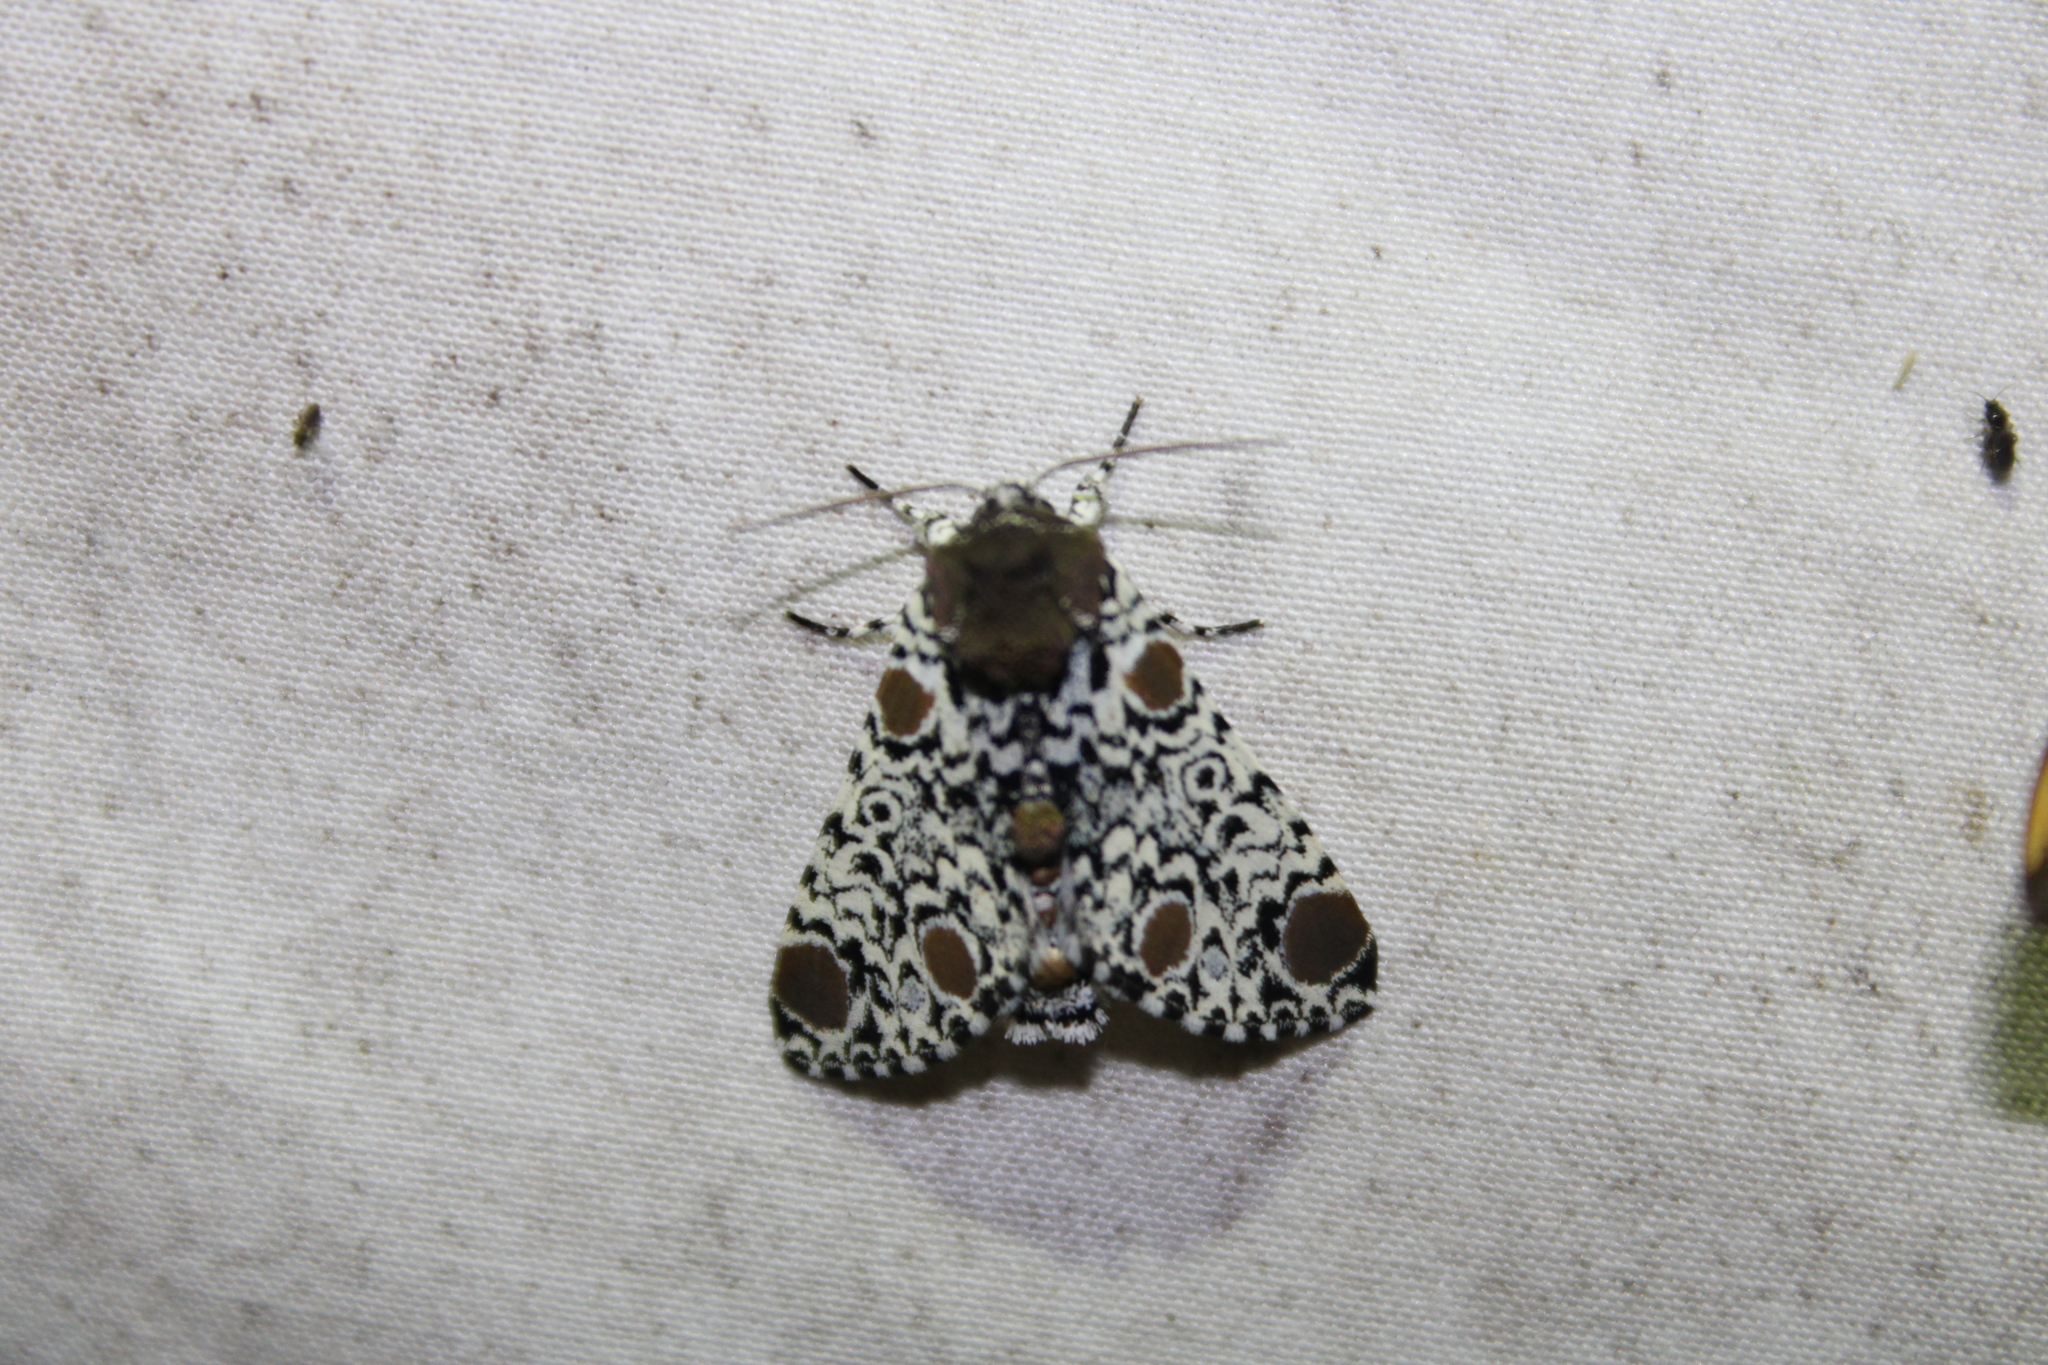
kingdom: Animalia
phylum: Arthropoda
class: Insecta
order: Lepidoptera
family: Noctuidae
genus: Harrisimemna
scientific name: Harrisimemna trisignata
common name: Harris threespot
